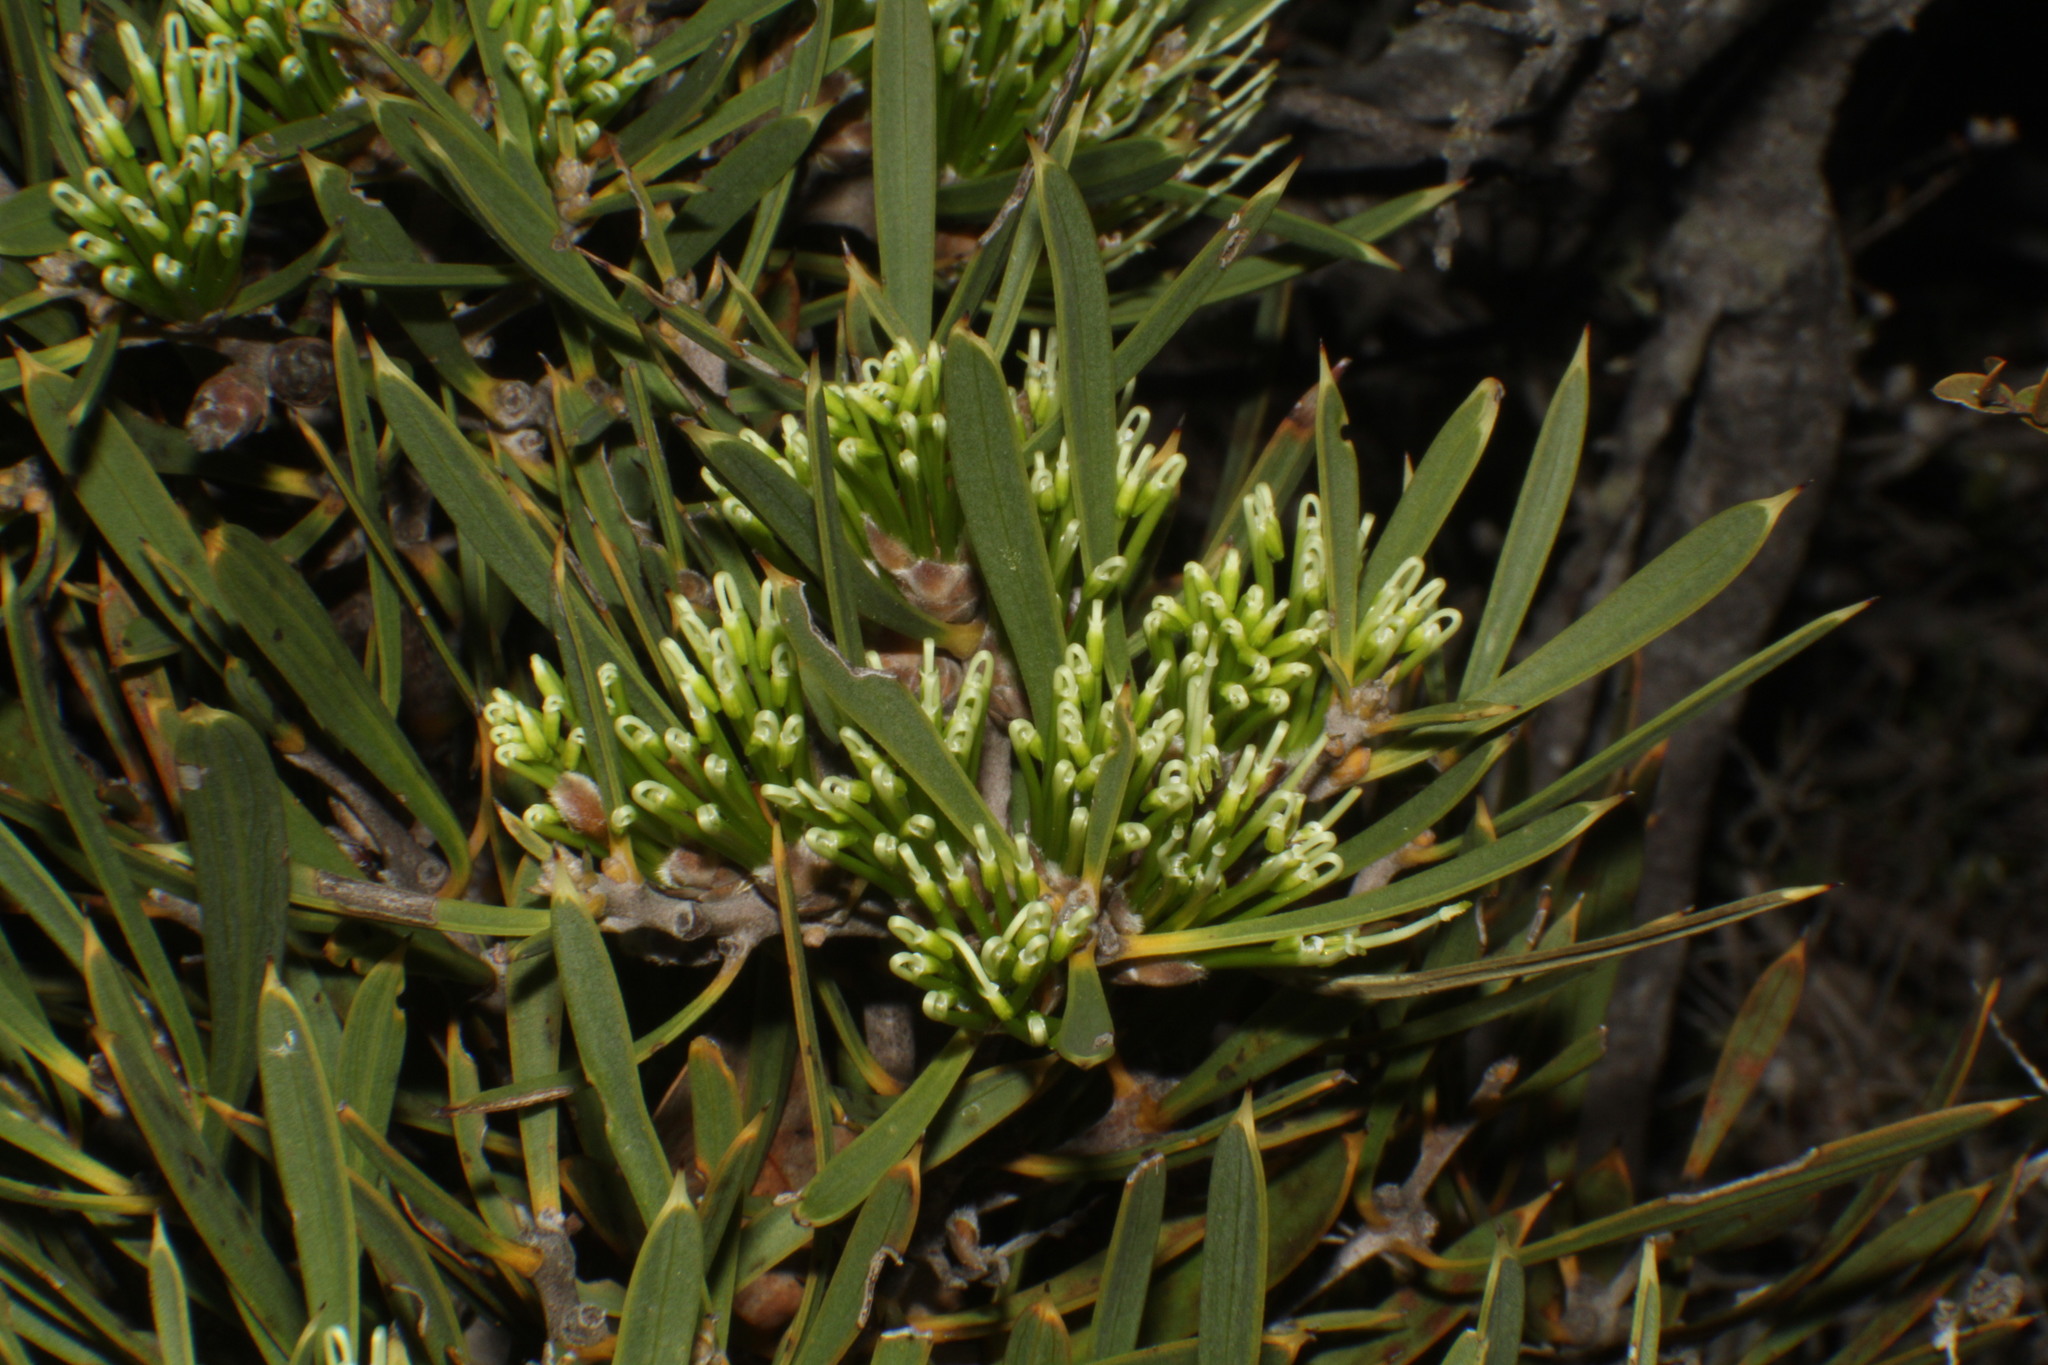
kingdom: Plantae
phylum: Tracheophyta
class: Magnoliopsida
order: Proteales
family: Proteaceae
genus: Hakea
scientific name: Hakea corymbosa
